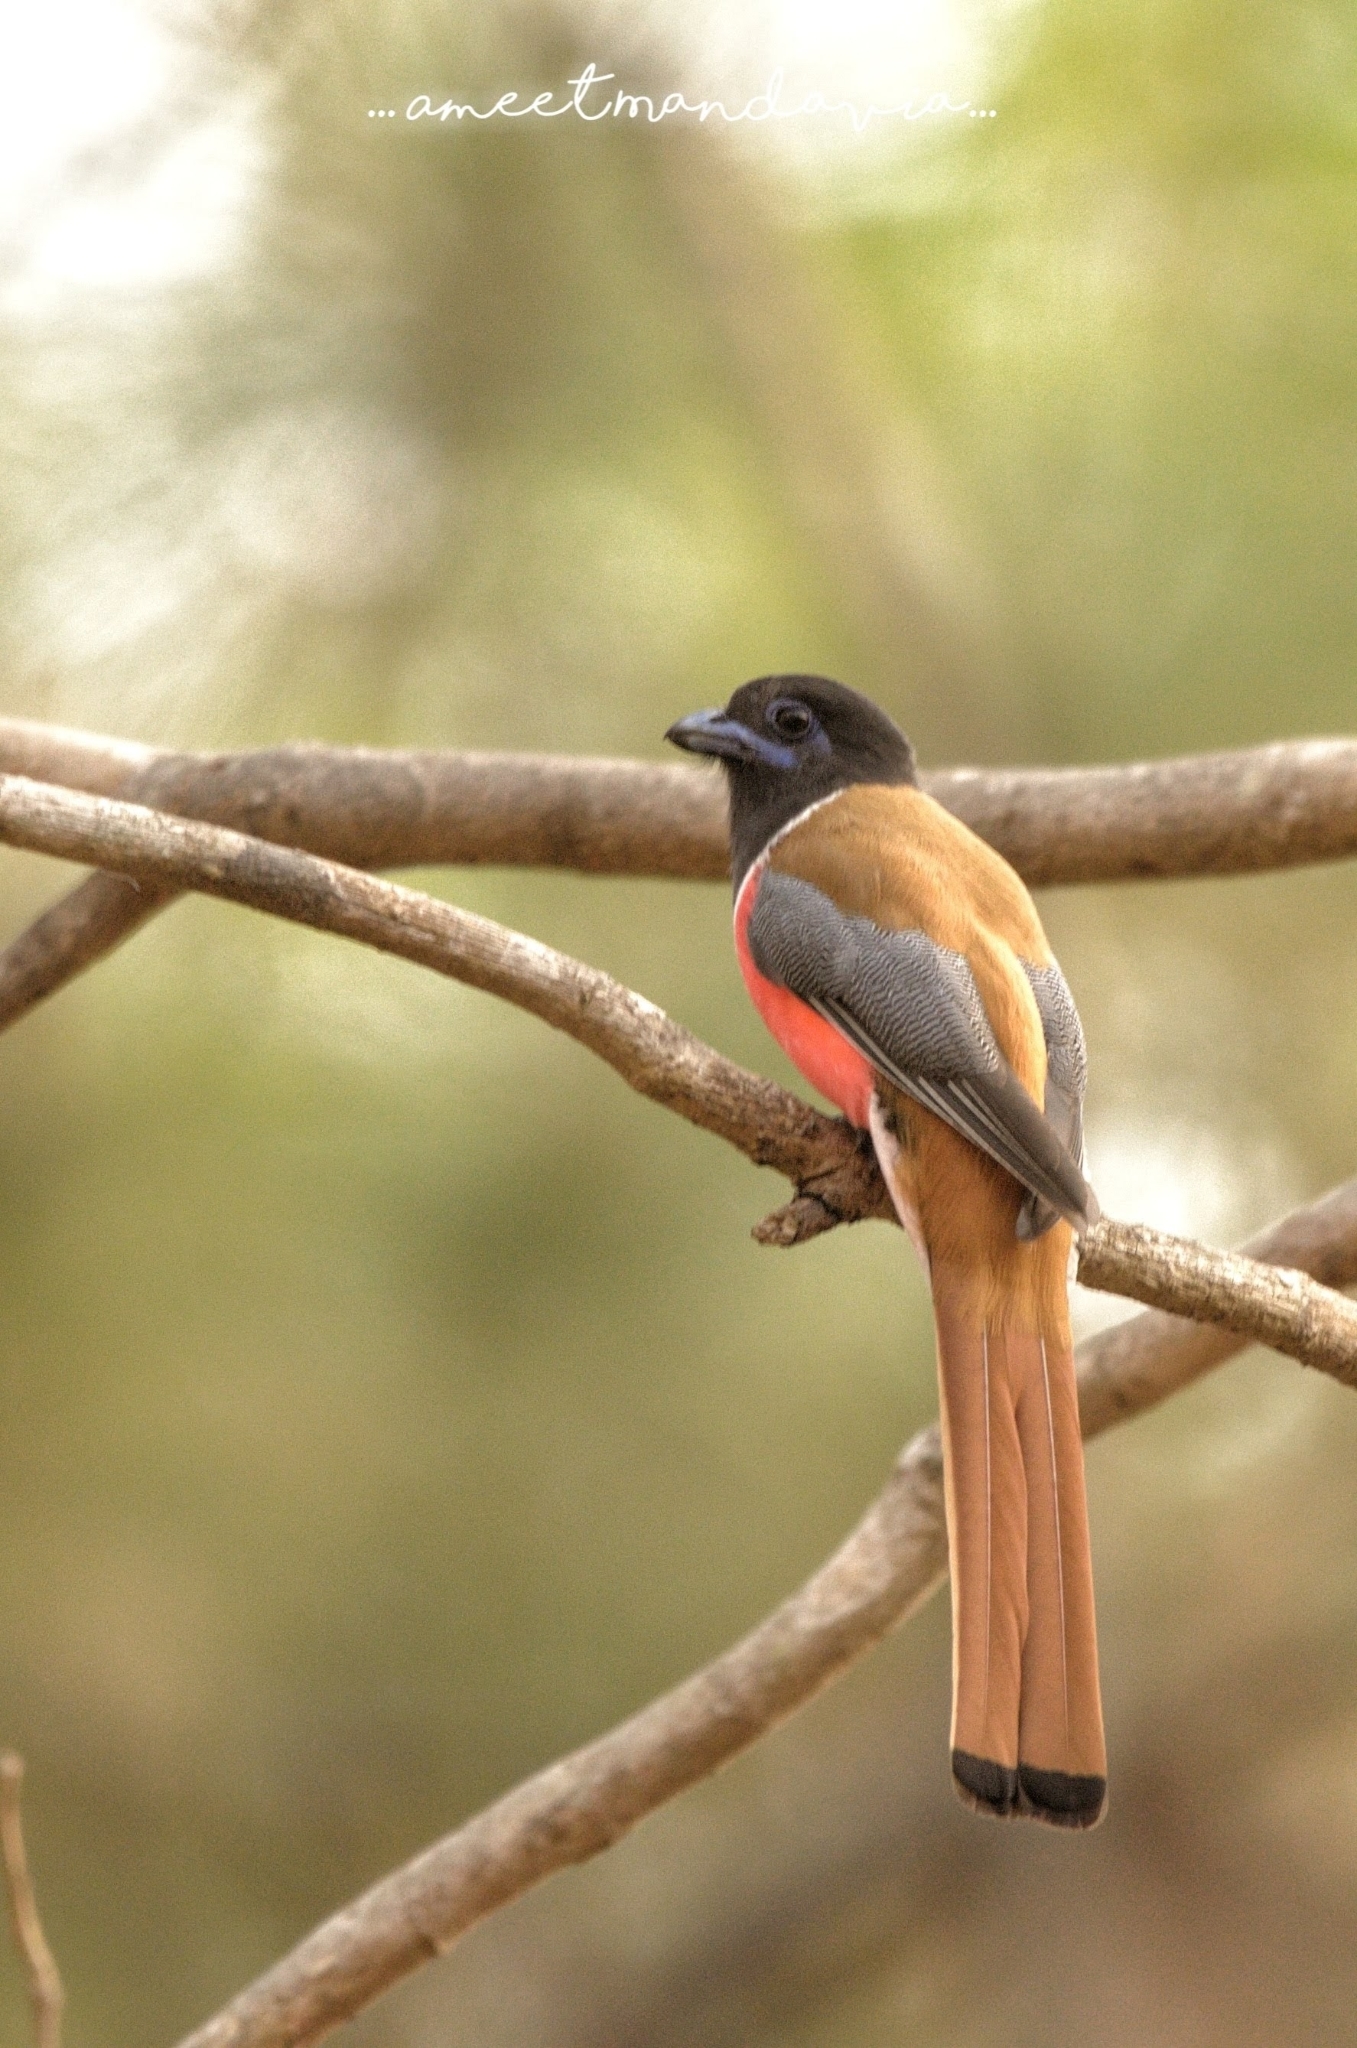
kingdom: Animalia
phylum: Chordata
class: Aves
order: Trogoniformes
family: Trogonidae
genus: Harpactes
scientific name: Harpactes fasciatus
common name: Malabar trogon
